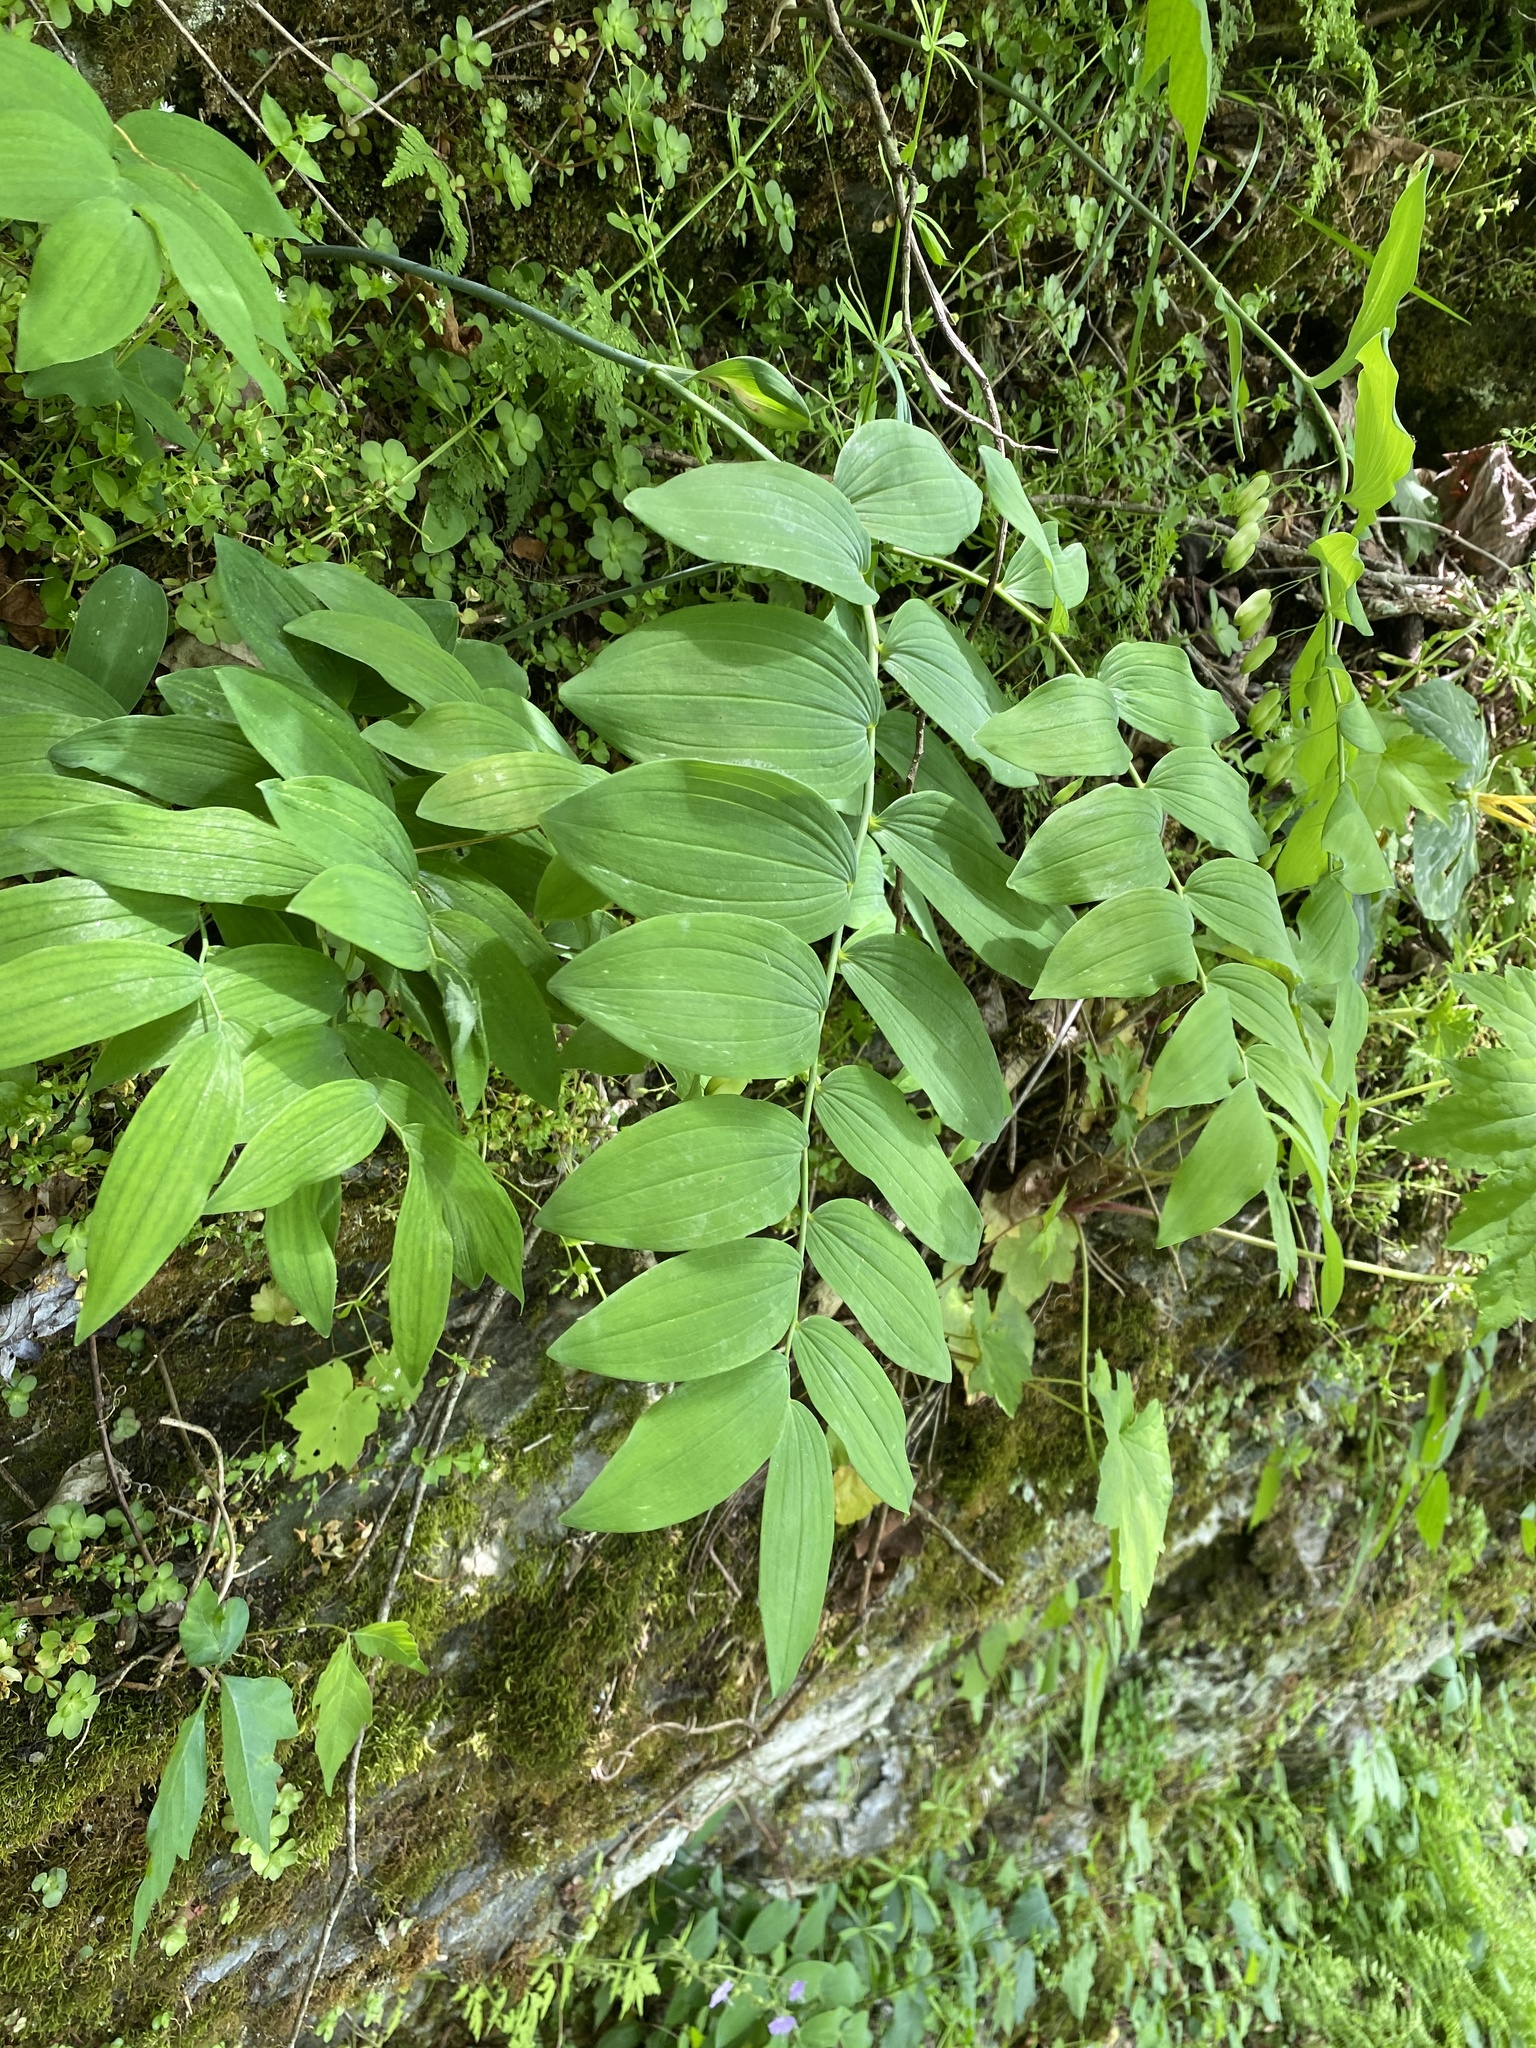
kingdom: Plantae
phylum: Tracheophyta
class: Liliopsida
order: Asparagales
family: Asparagaceae
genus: Polygonatum
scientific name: Polygonatum biflorum
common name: American solomon's-seal
